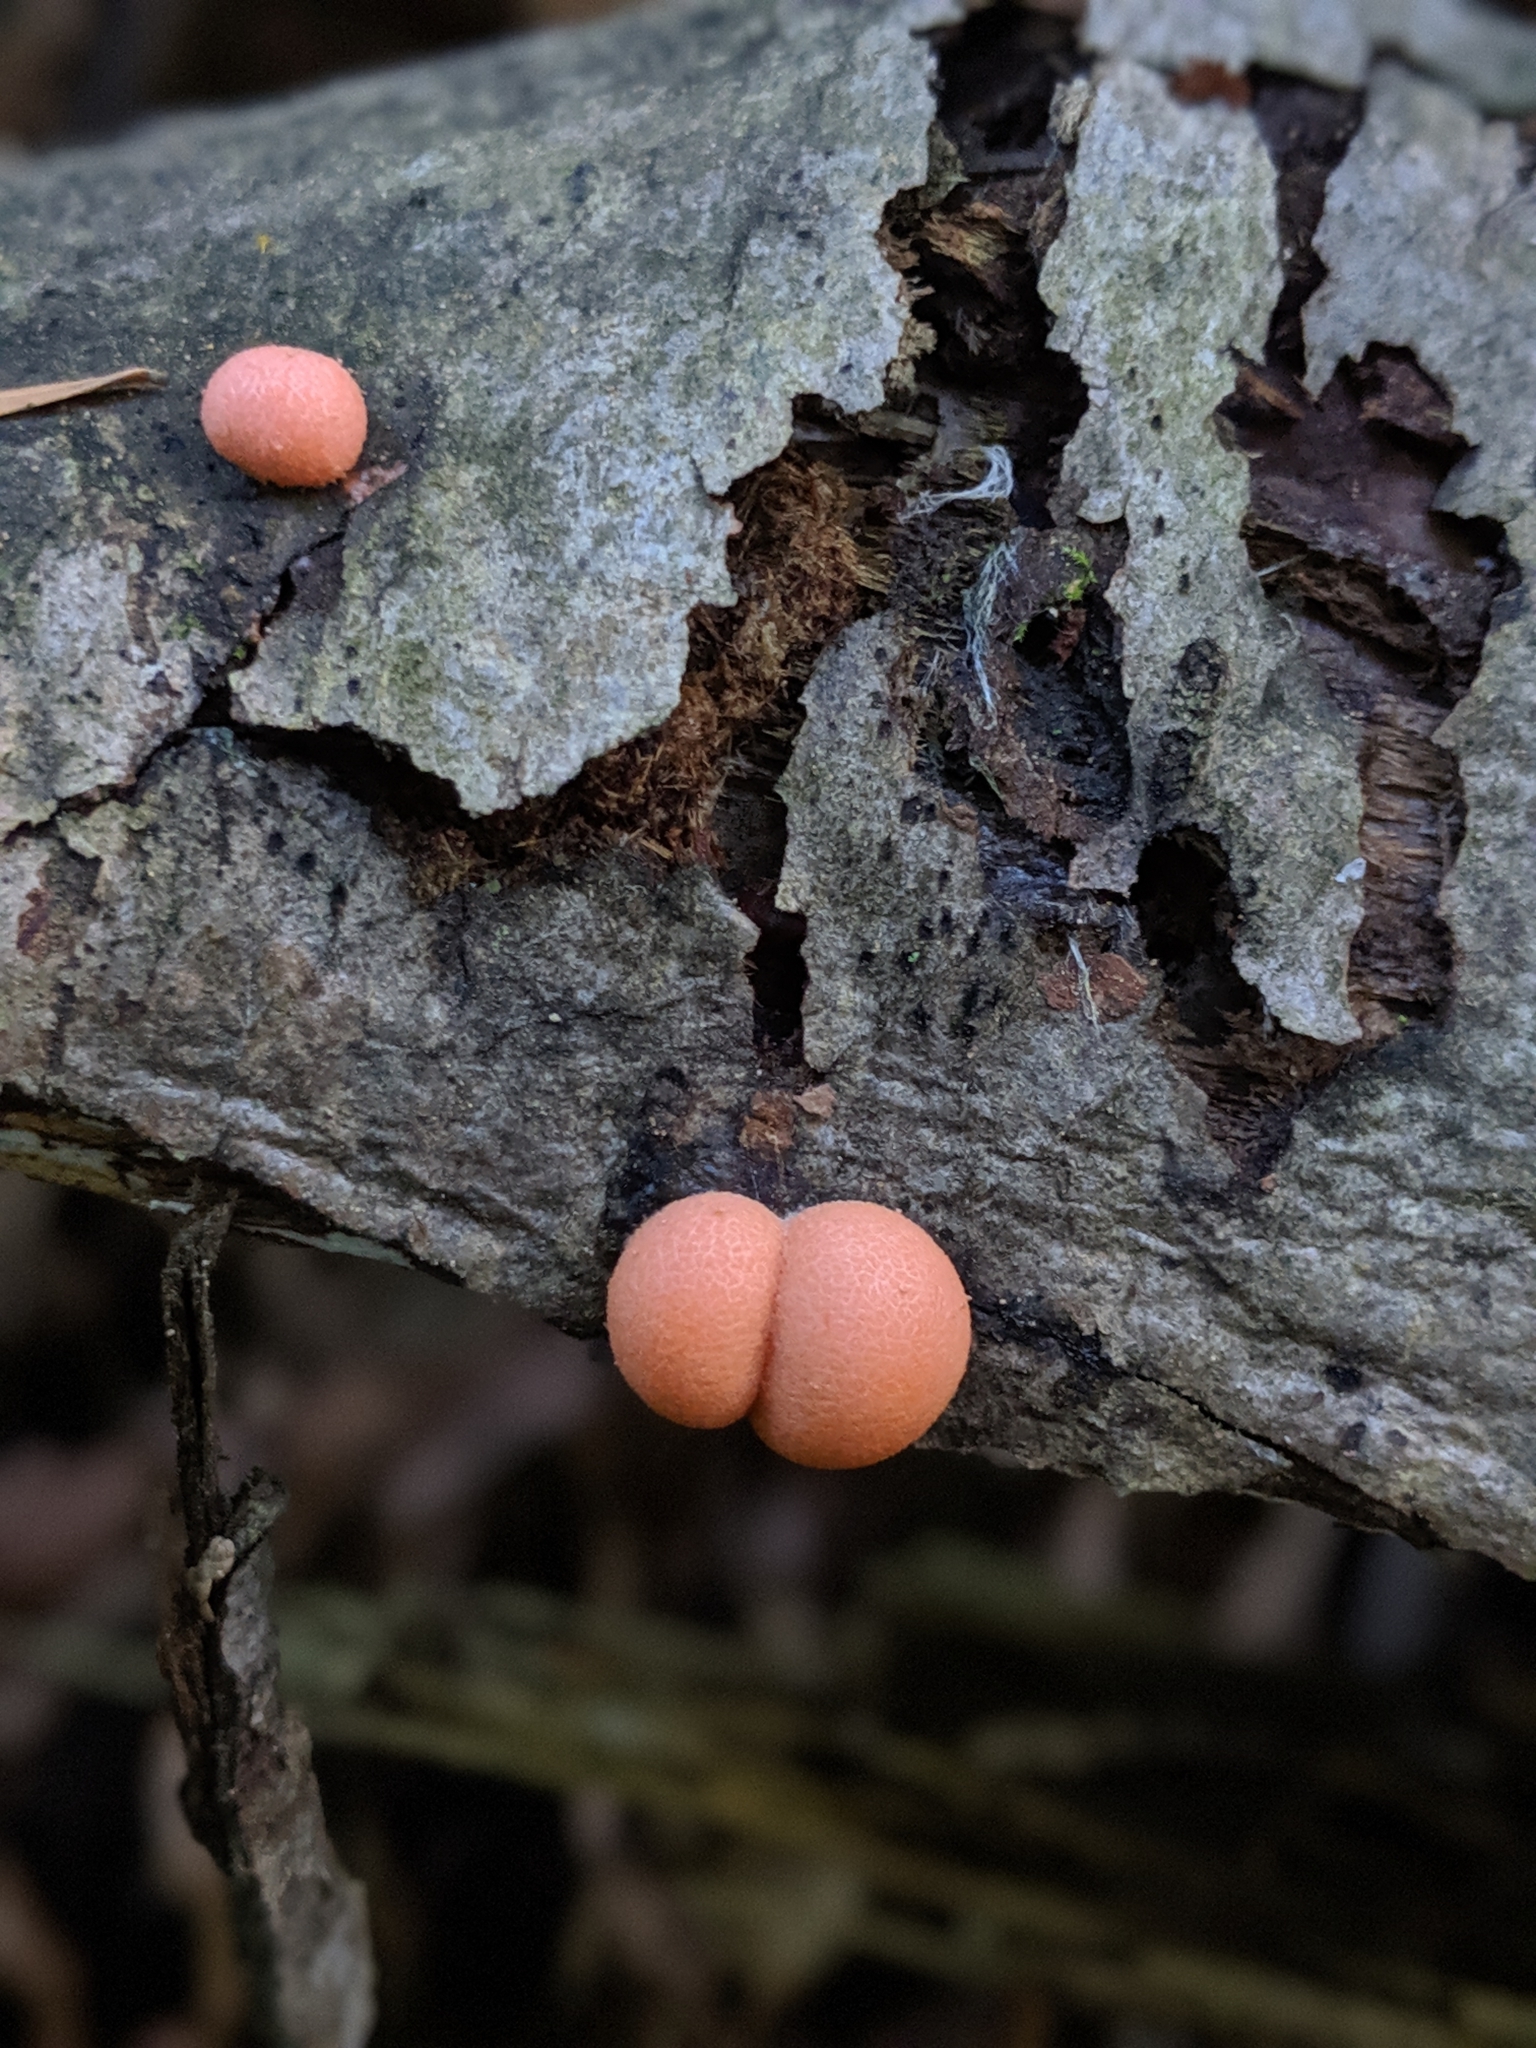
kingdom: Protozoa
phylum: Mycetozoa
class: Myxomycetes
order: Cribrariales
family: Tubiferaceae
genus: Lycogala
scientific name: Lycogala epidendrum
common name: Wolf's milk
